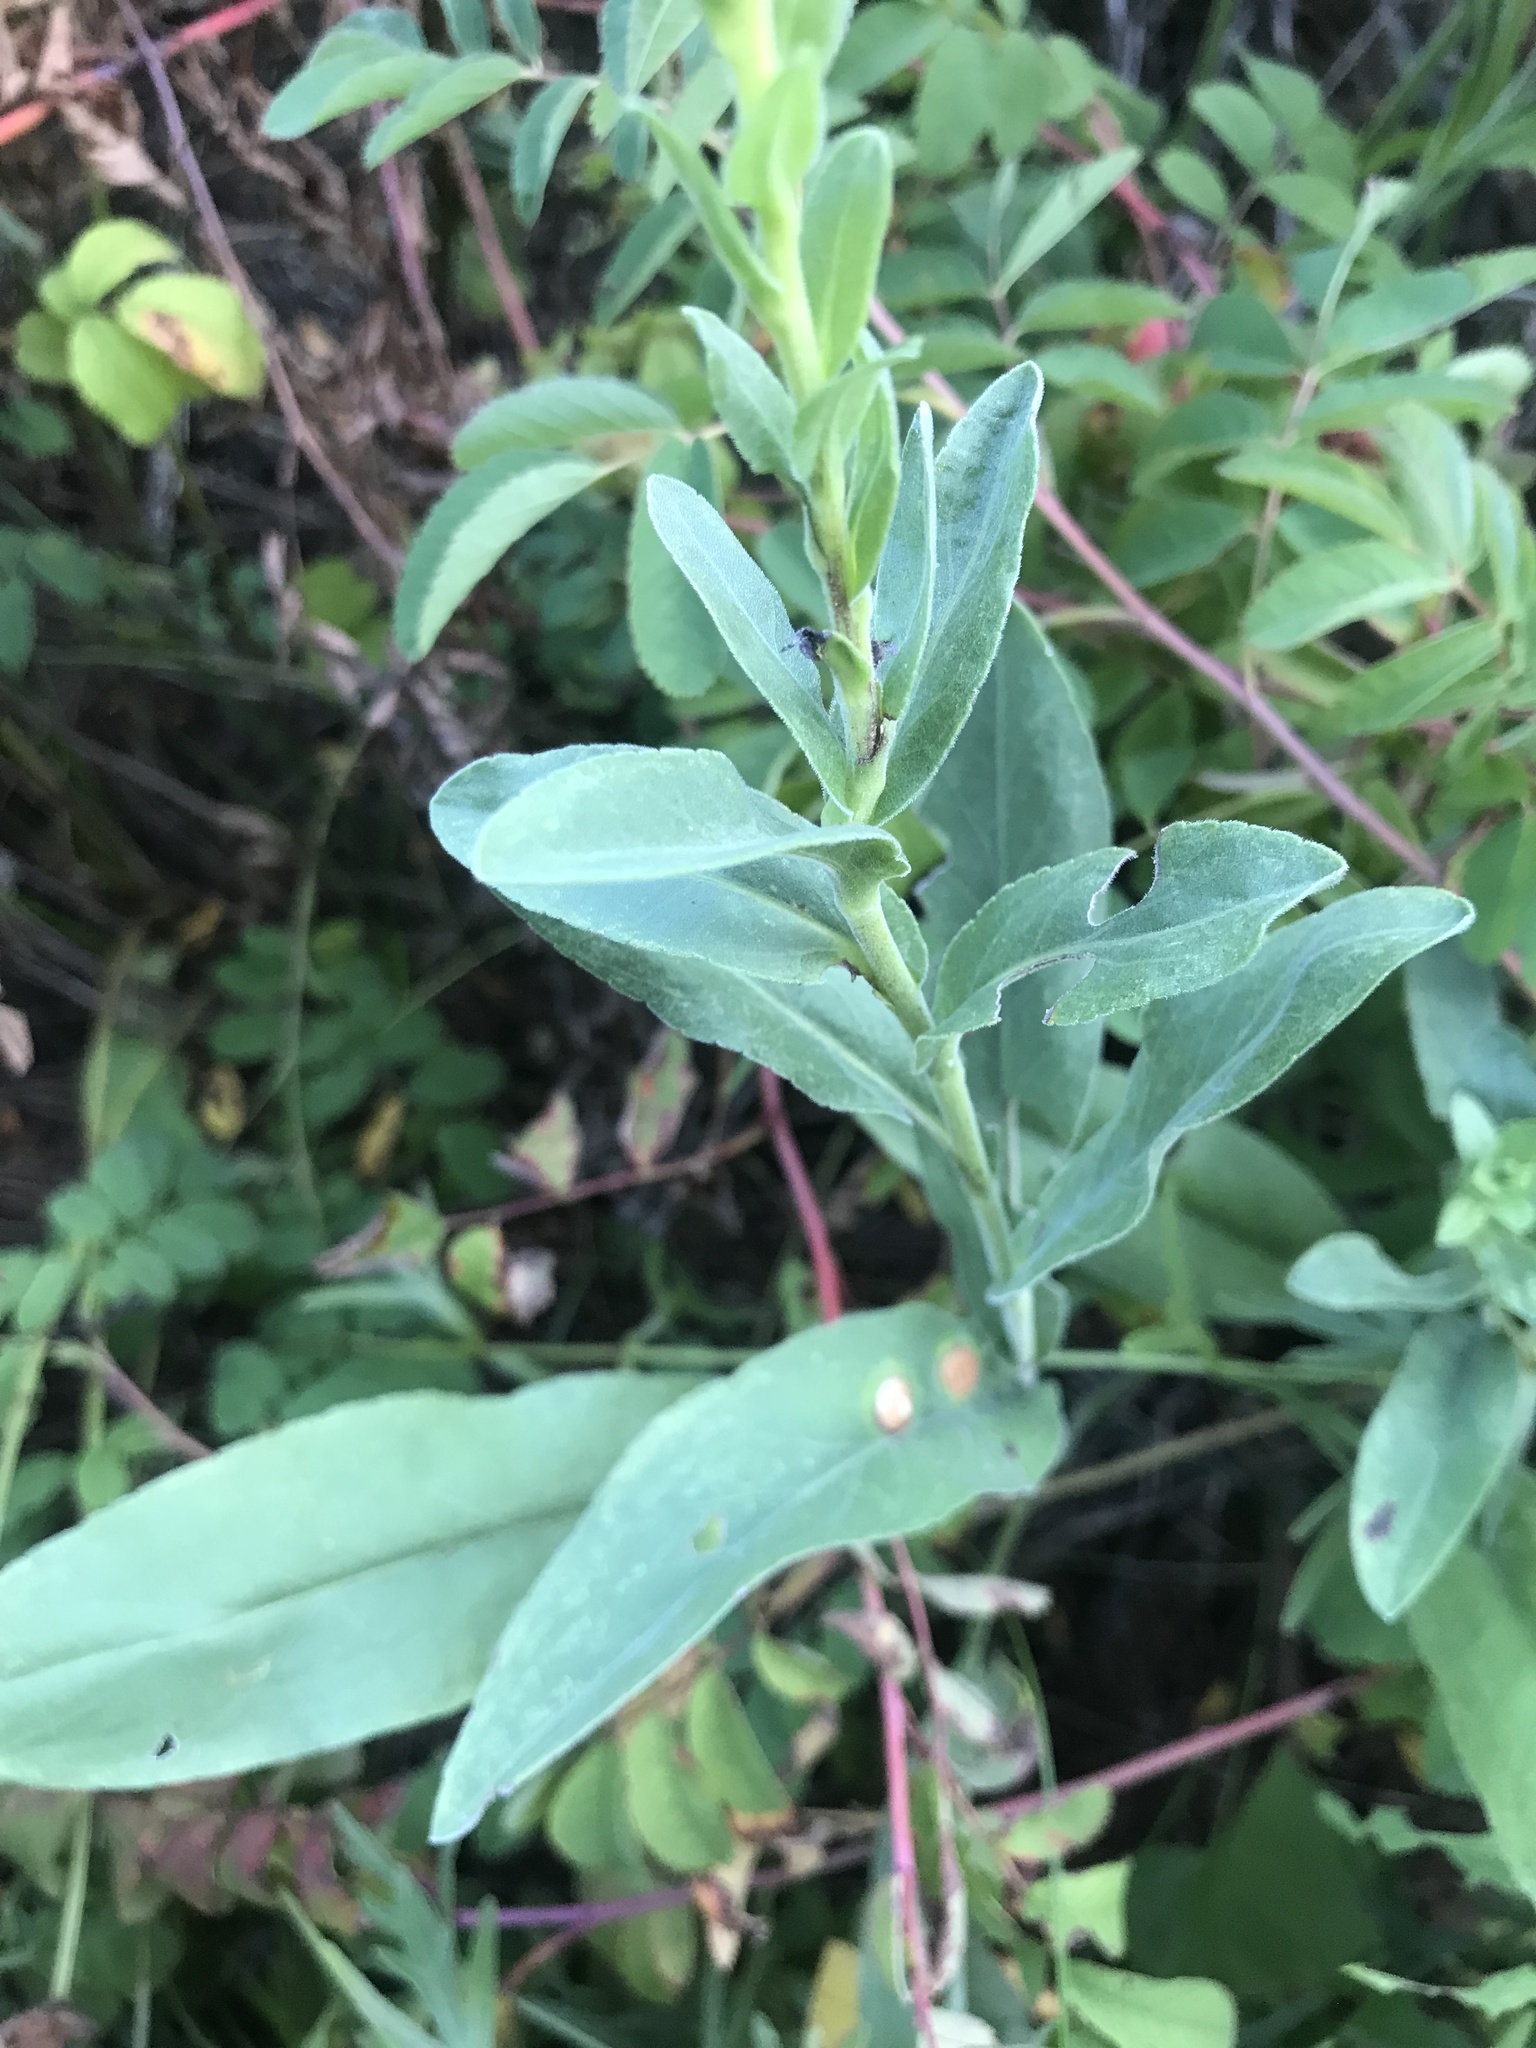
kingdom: Plantae
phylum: Tracheophyta
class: Magnoliopsida
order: Asterales
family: Asteraceae
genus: Solidago
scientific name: Solidago rigida
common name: Rigid goldenrod
